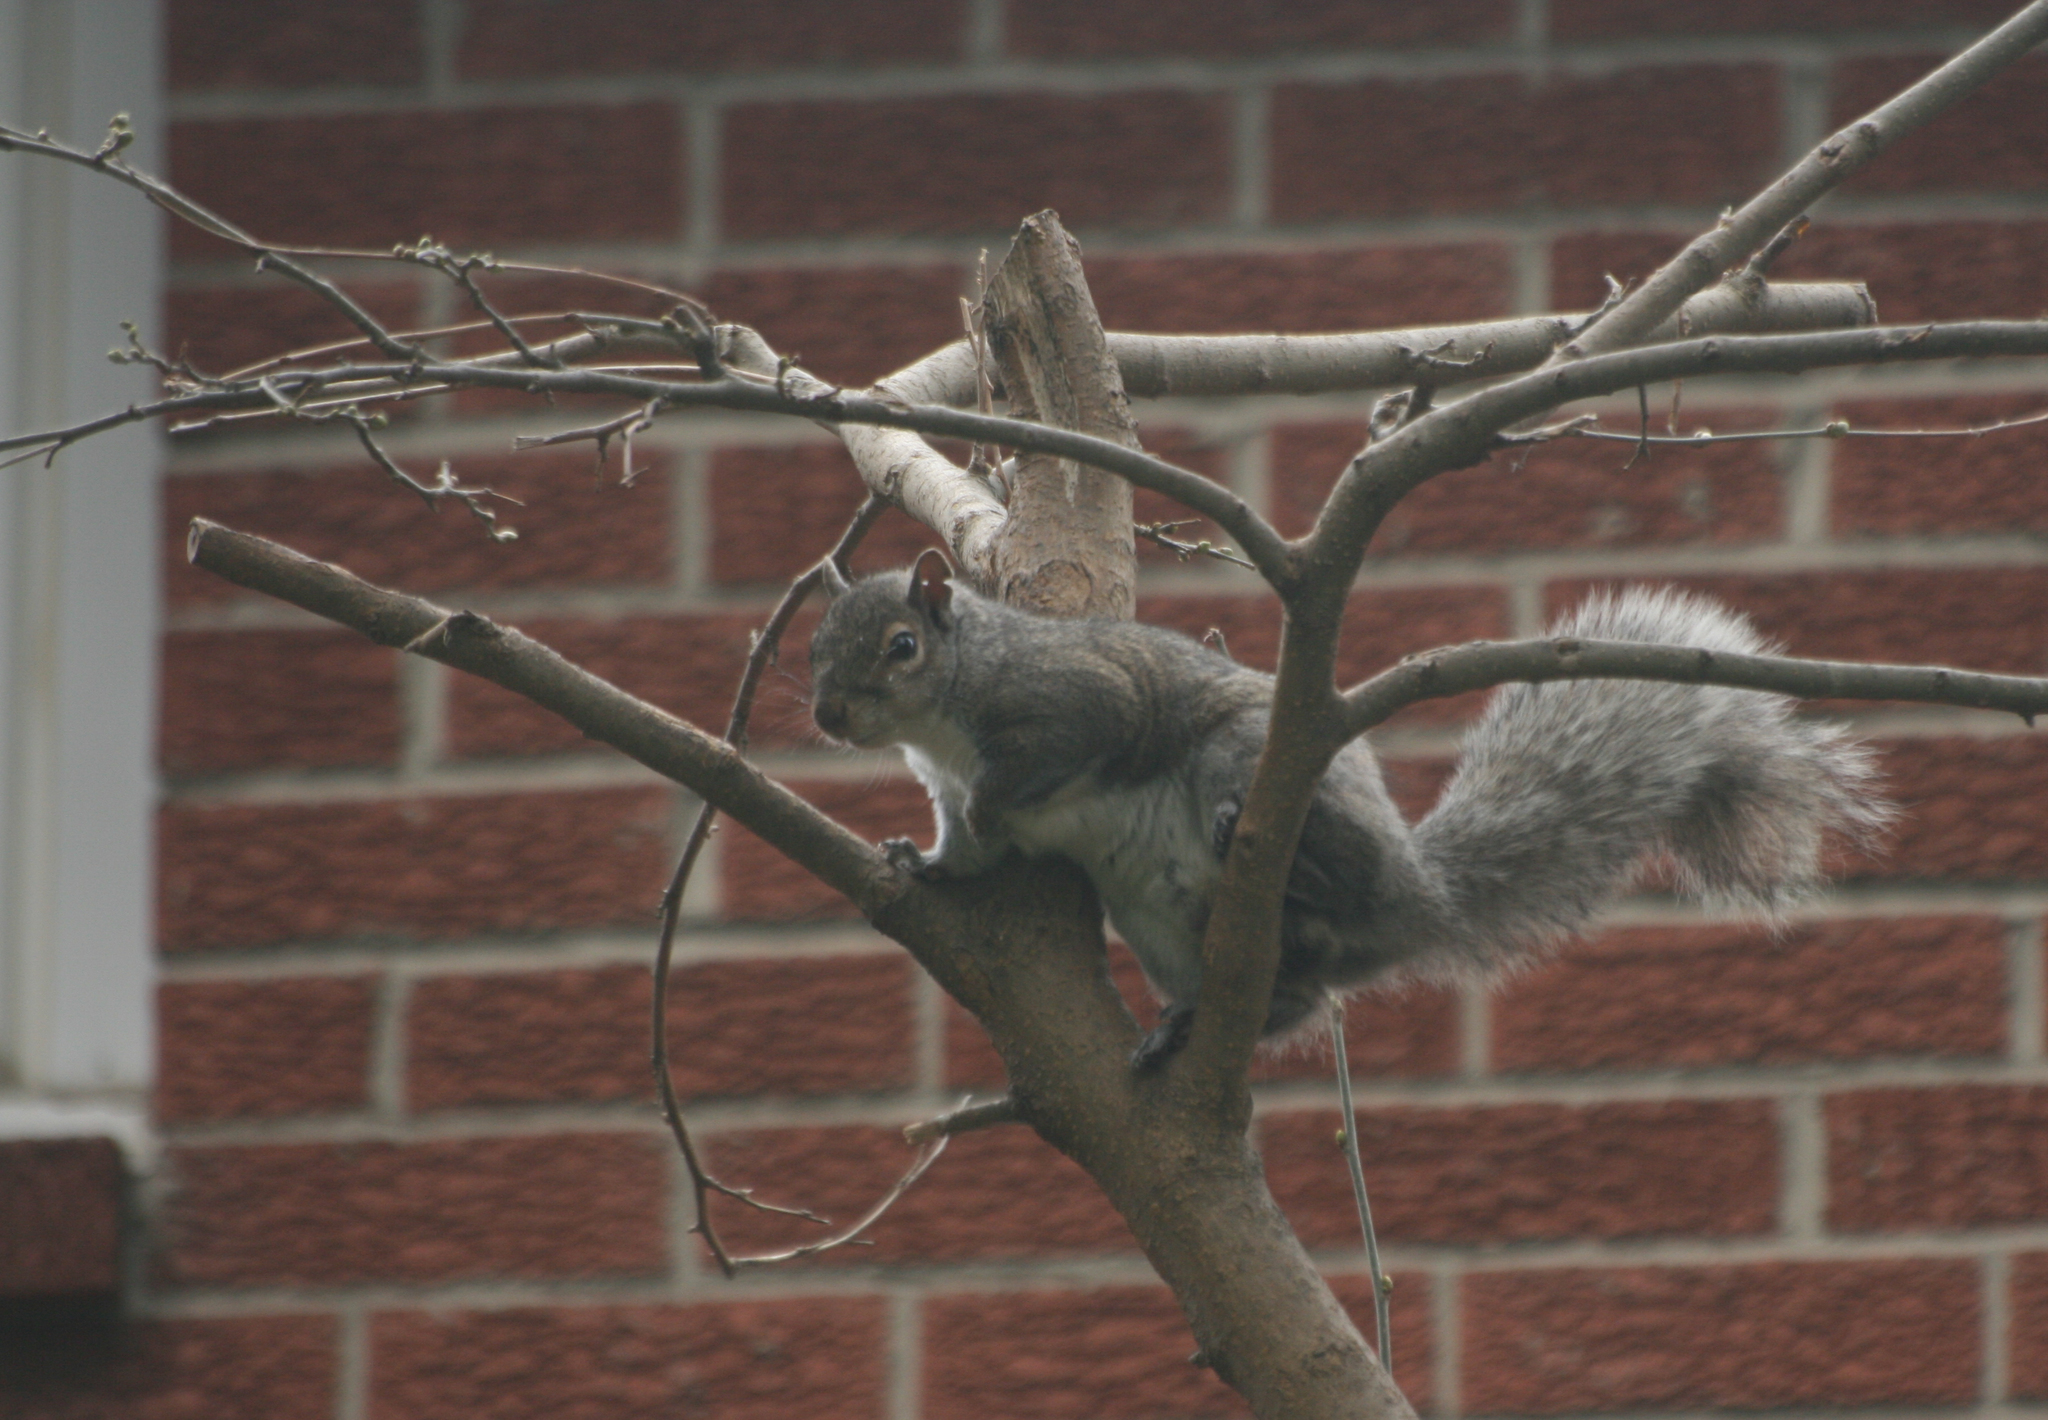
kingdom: Animalia
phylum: Chordata
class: Mammalia
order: Rodentia
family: Sciuridae
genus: Sciurus
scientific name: Sciurus carolinensis
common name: Eastern gray squirrel
